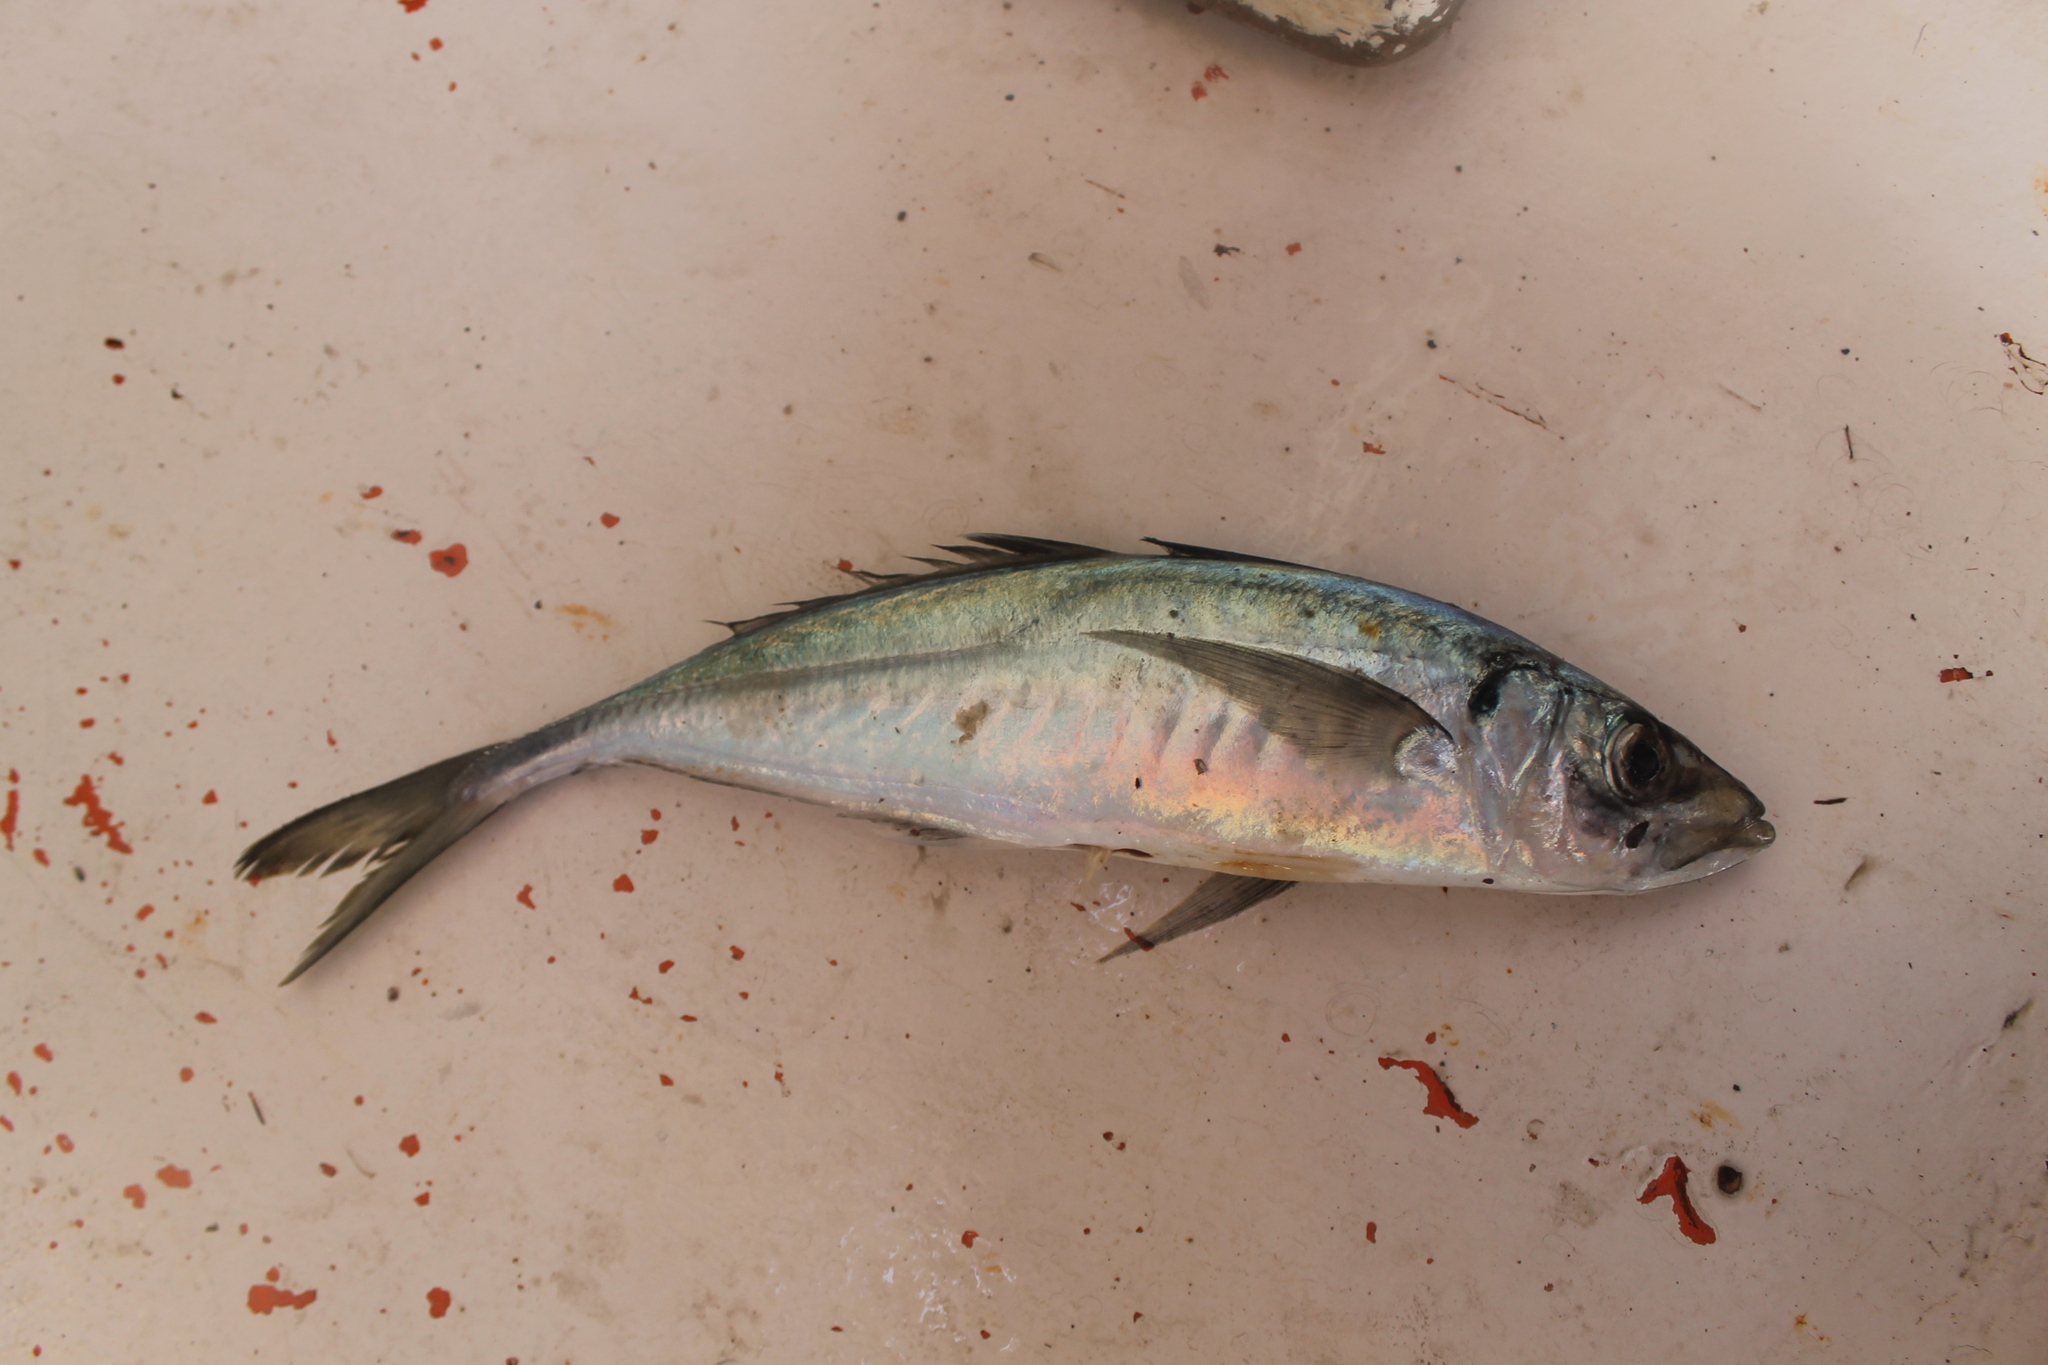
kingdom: Animalia
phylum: Chordata
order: Perciformes
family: Carangidae
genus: Trachurus
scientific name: Trachurus
